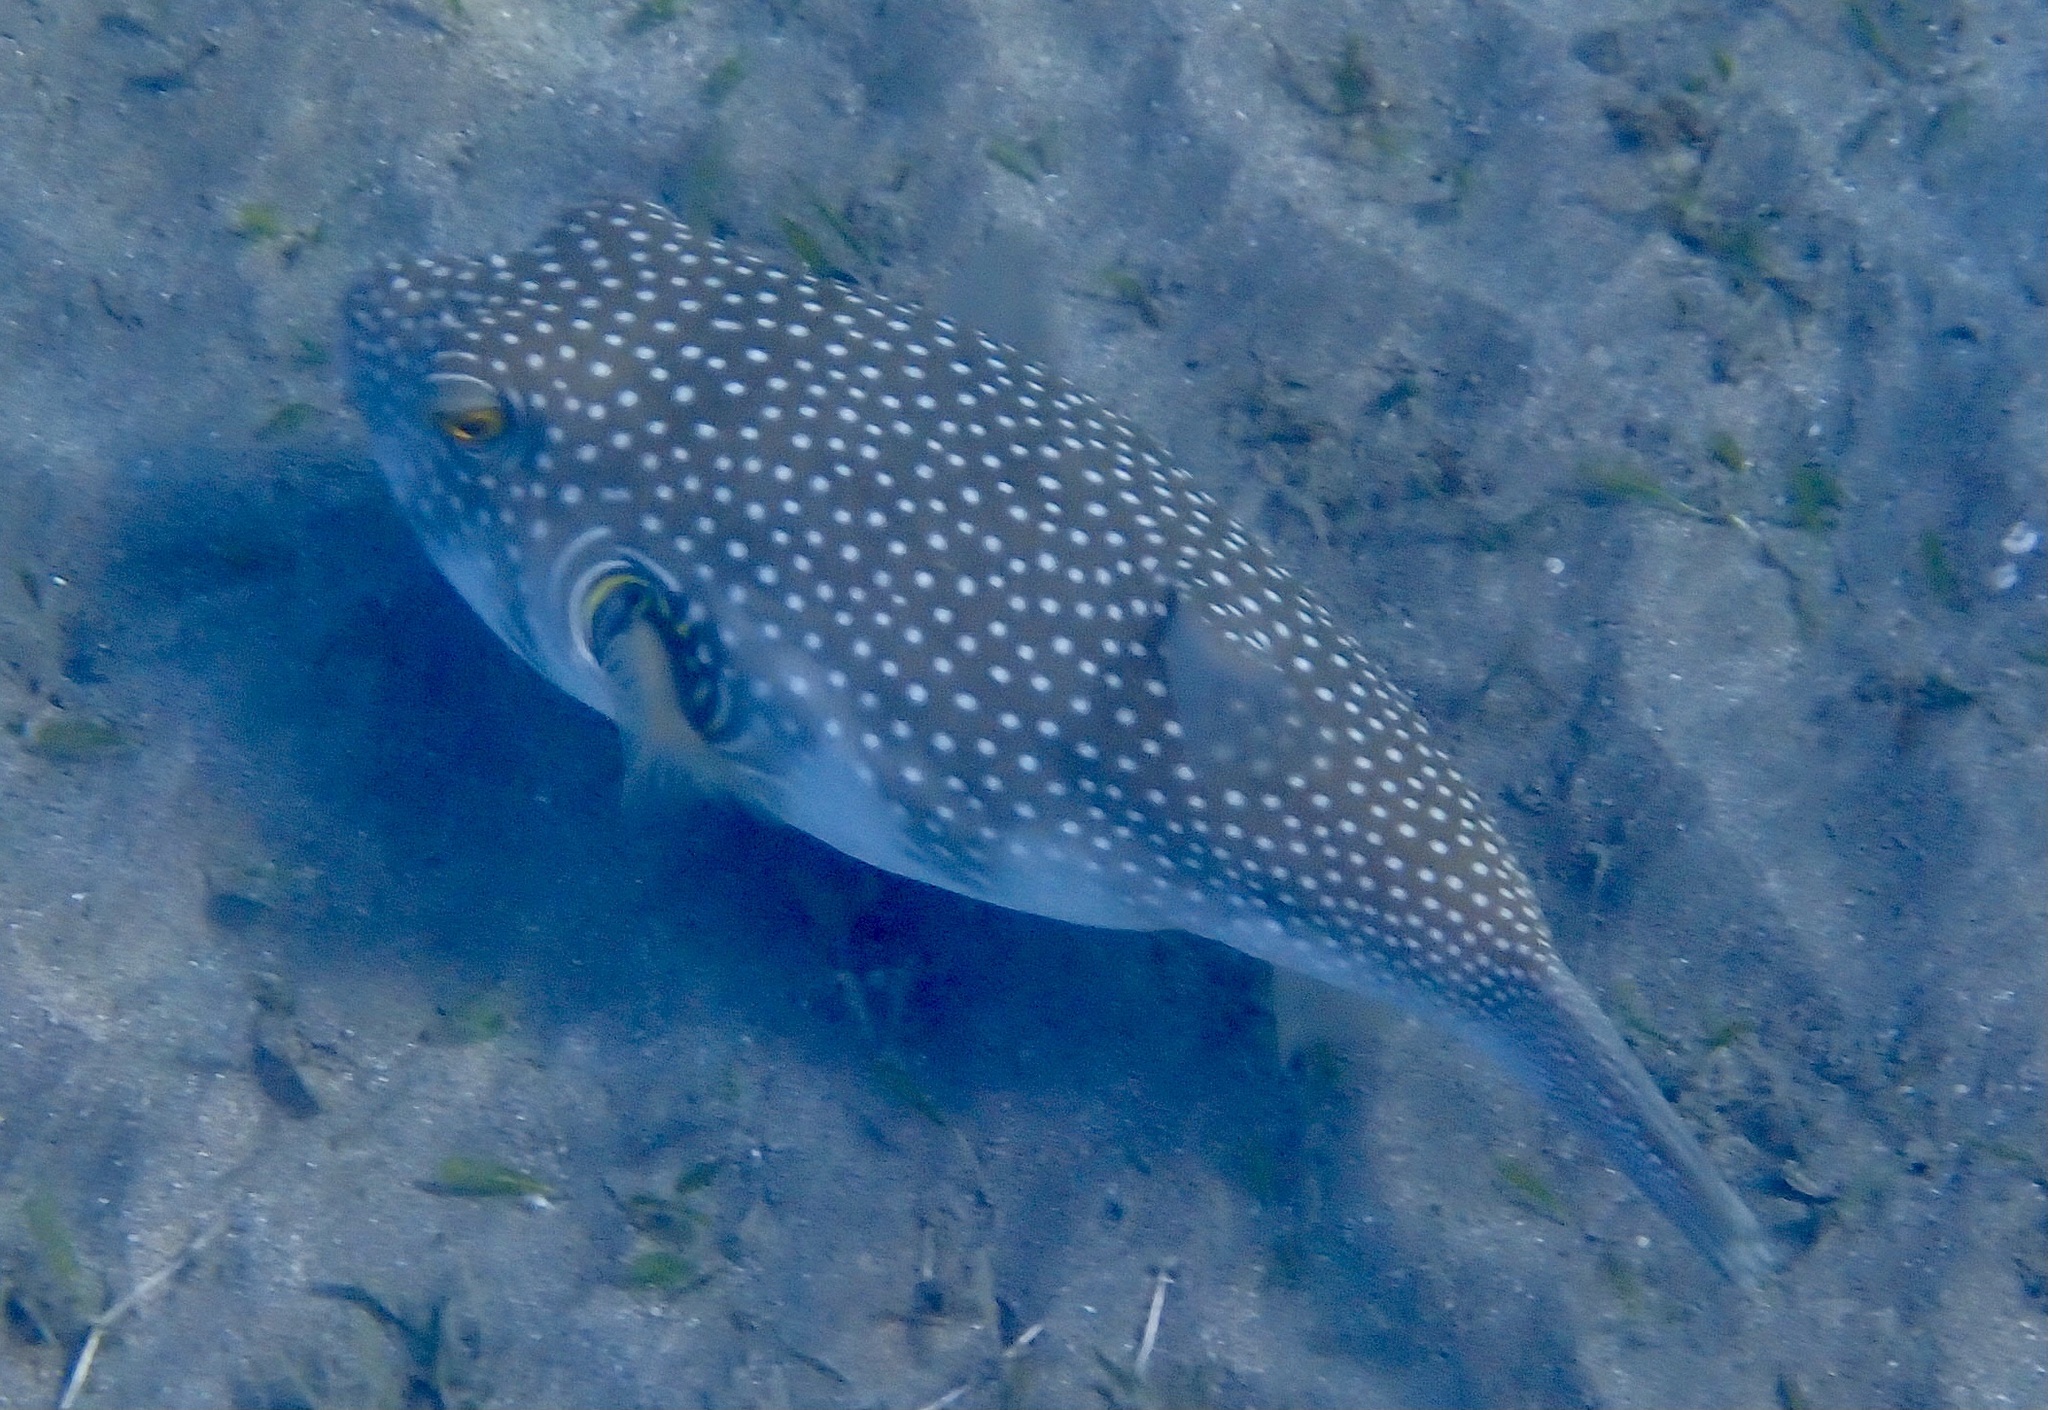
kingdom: Animalia
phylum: Chordata
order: Tetraodontiformes
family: Tetraodontidae
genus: Arothron
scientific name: Arothron hispidus
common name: Stripebelly puffer
